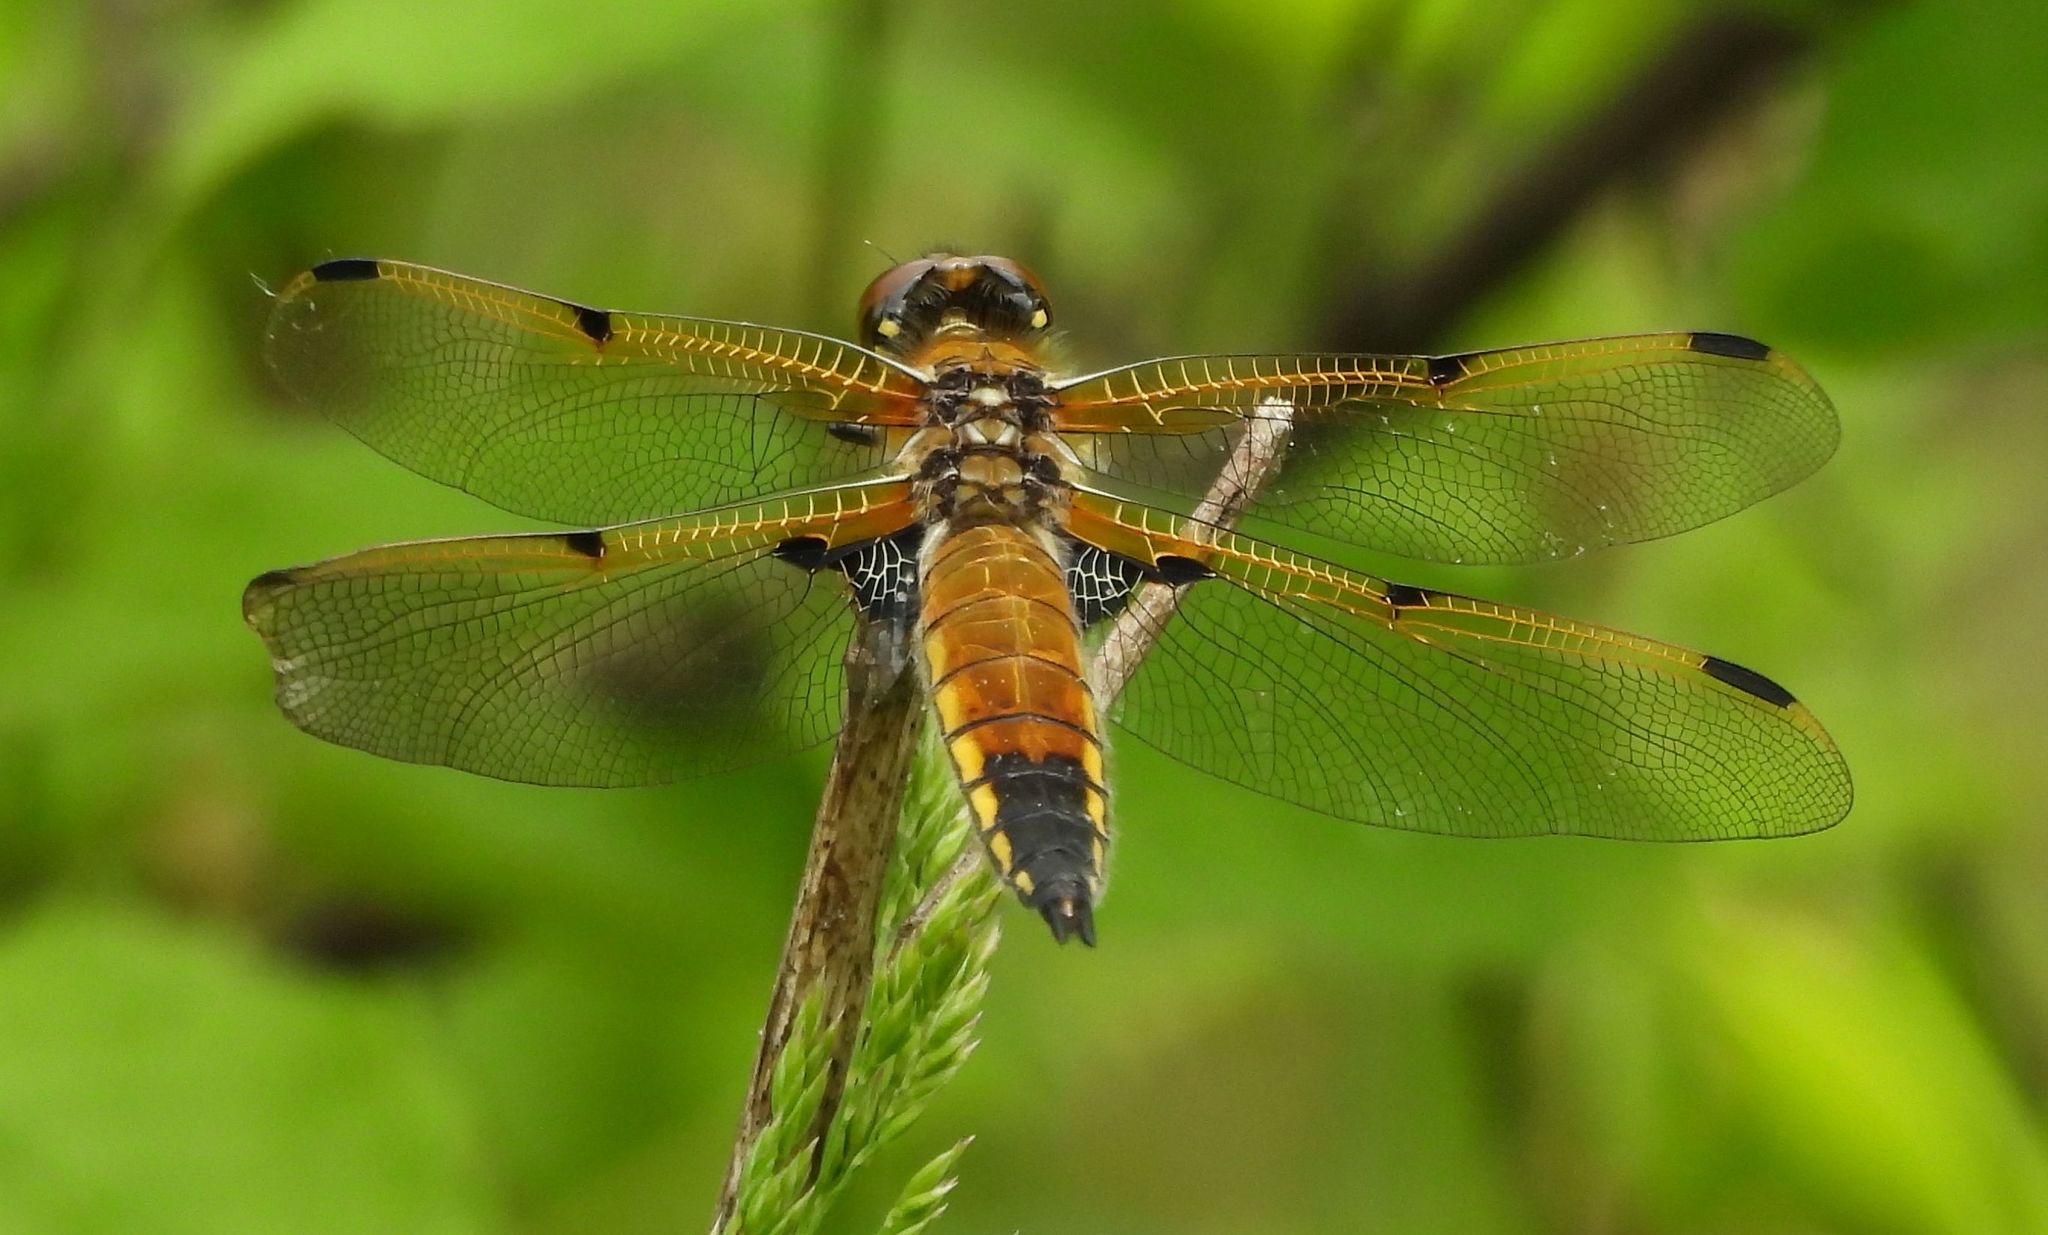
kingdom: Animalia
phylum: Arthropoda
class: Insecta
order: Odonata
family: Libellulidae
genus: Libellula
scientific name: Libellula quadrimaculata
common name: Four-spotted chaser
